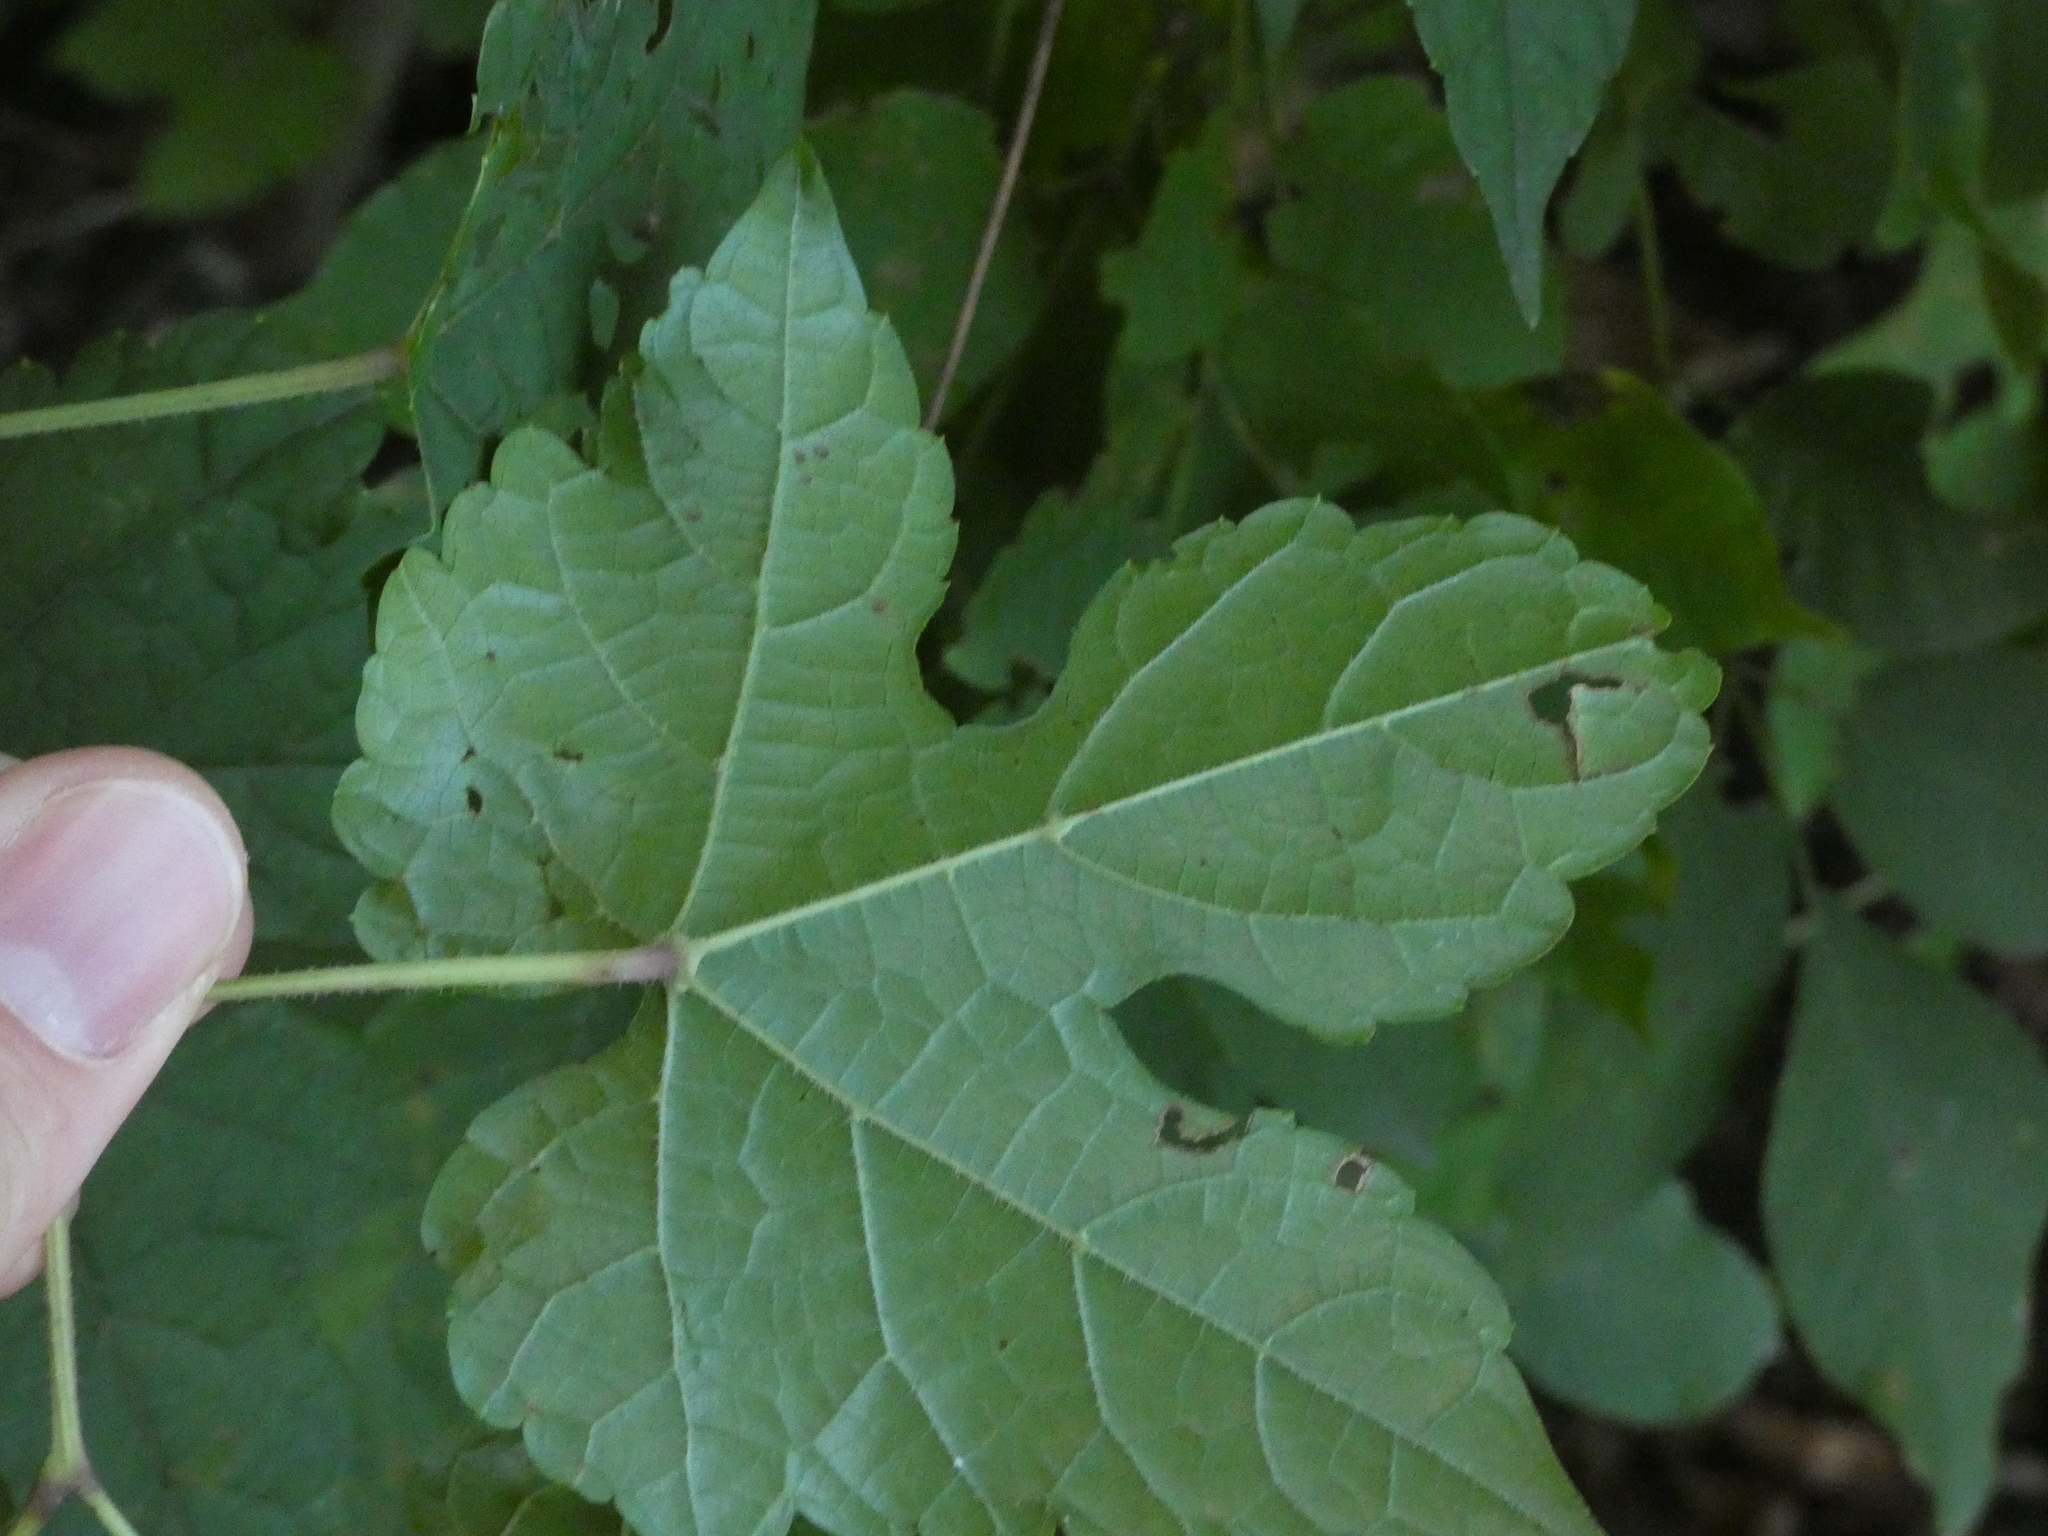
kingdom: Animalia
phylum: Arthropoda
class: Insecta
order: Lepidoptera
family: Gracillariidae
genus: Phyllocnistis
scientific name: Phyllocnistis vitegenella
